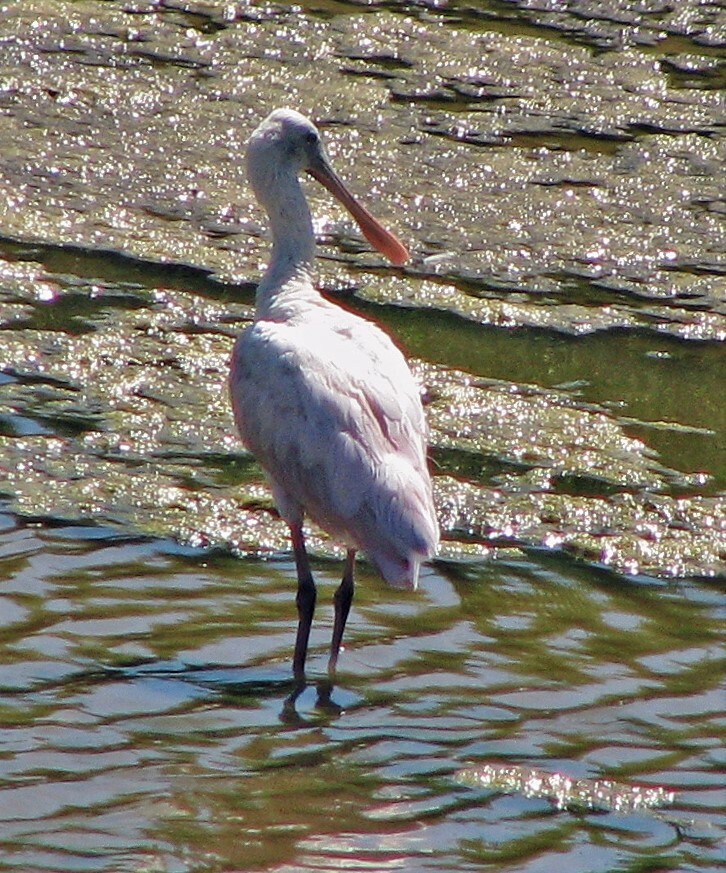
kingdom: Animalia
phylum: Chordata
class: Aves
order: Pelecaniformes
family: Threskiornithidae
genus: Platalea
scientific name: Platalea ajaja
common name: Roseate spoonbill
